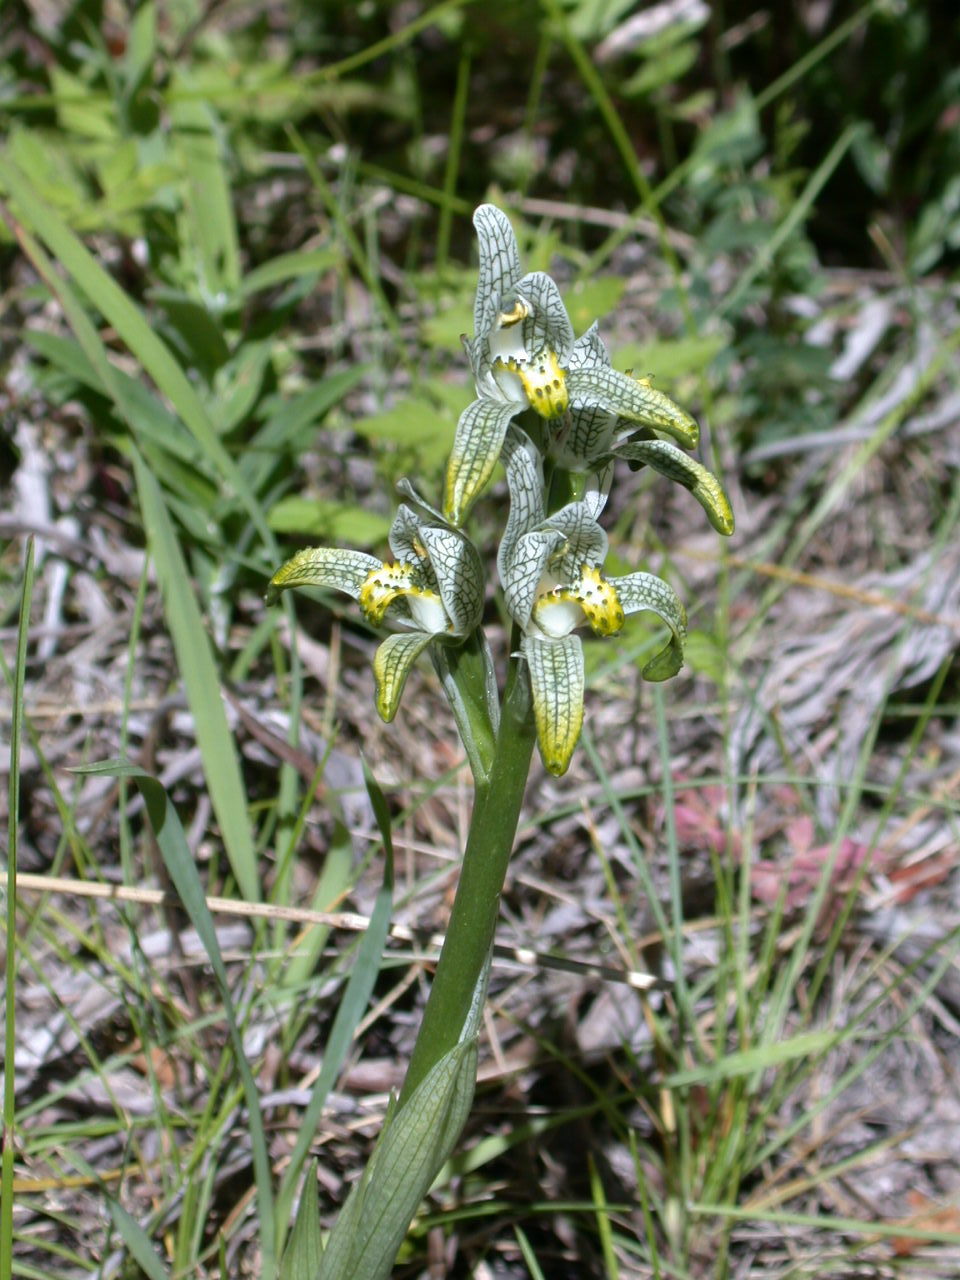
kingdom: Plantae
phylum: Tracheophyta
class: Liliopsida
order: Asparagales
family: Orchidaceae
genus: Chloraea
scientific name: Chloraea magellanica
